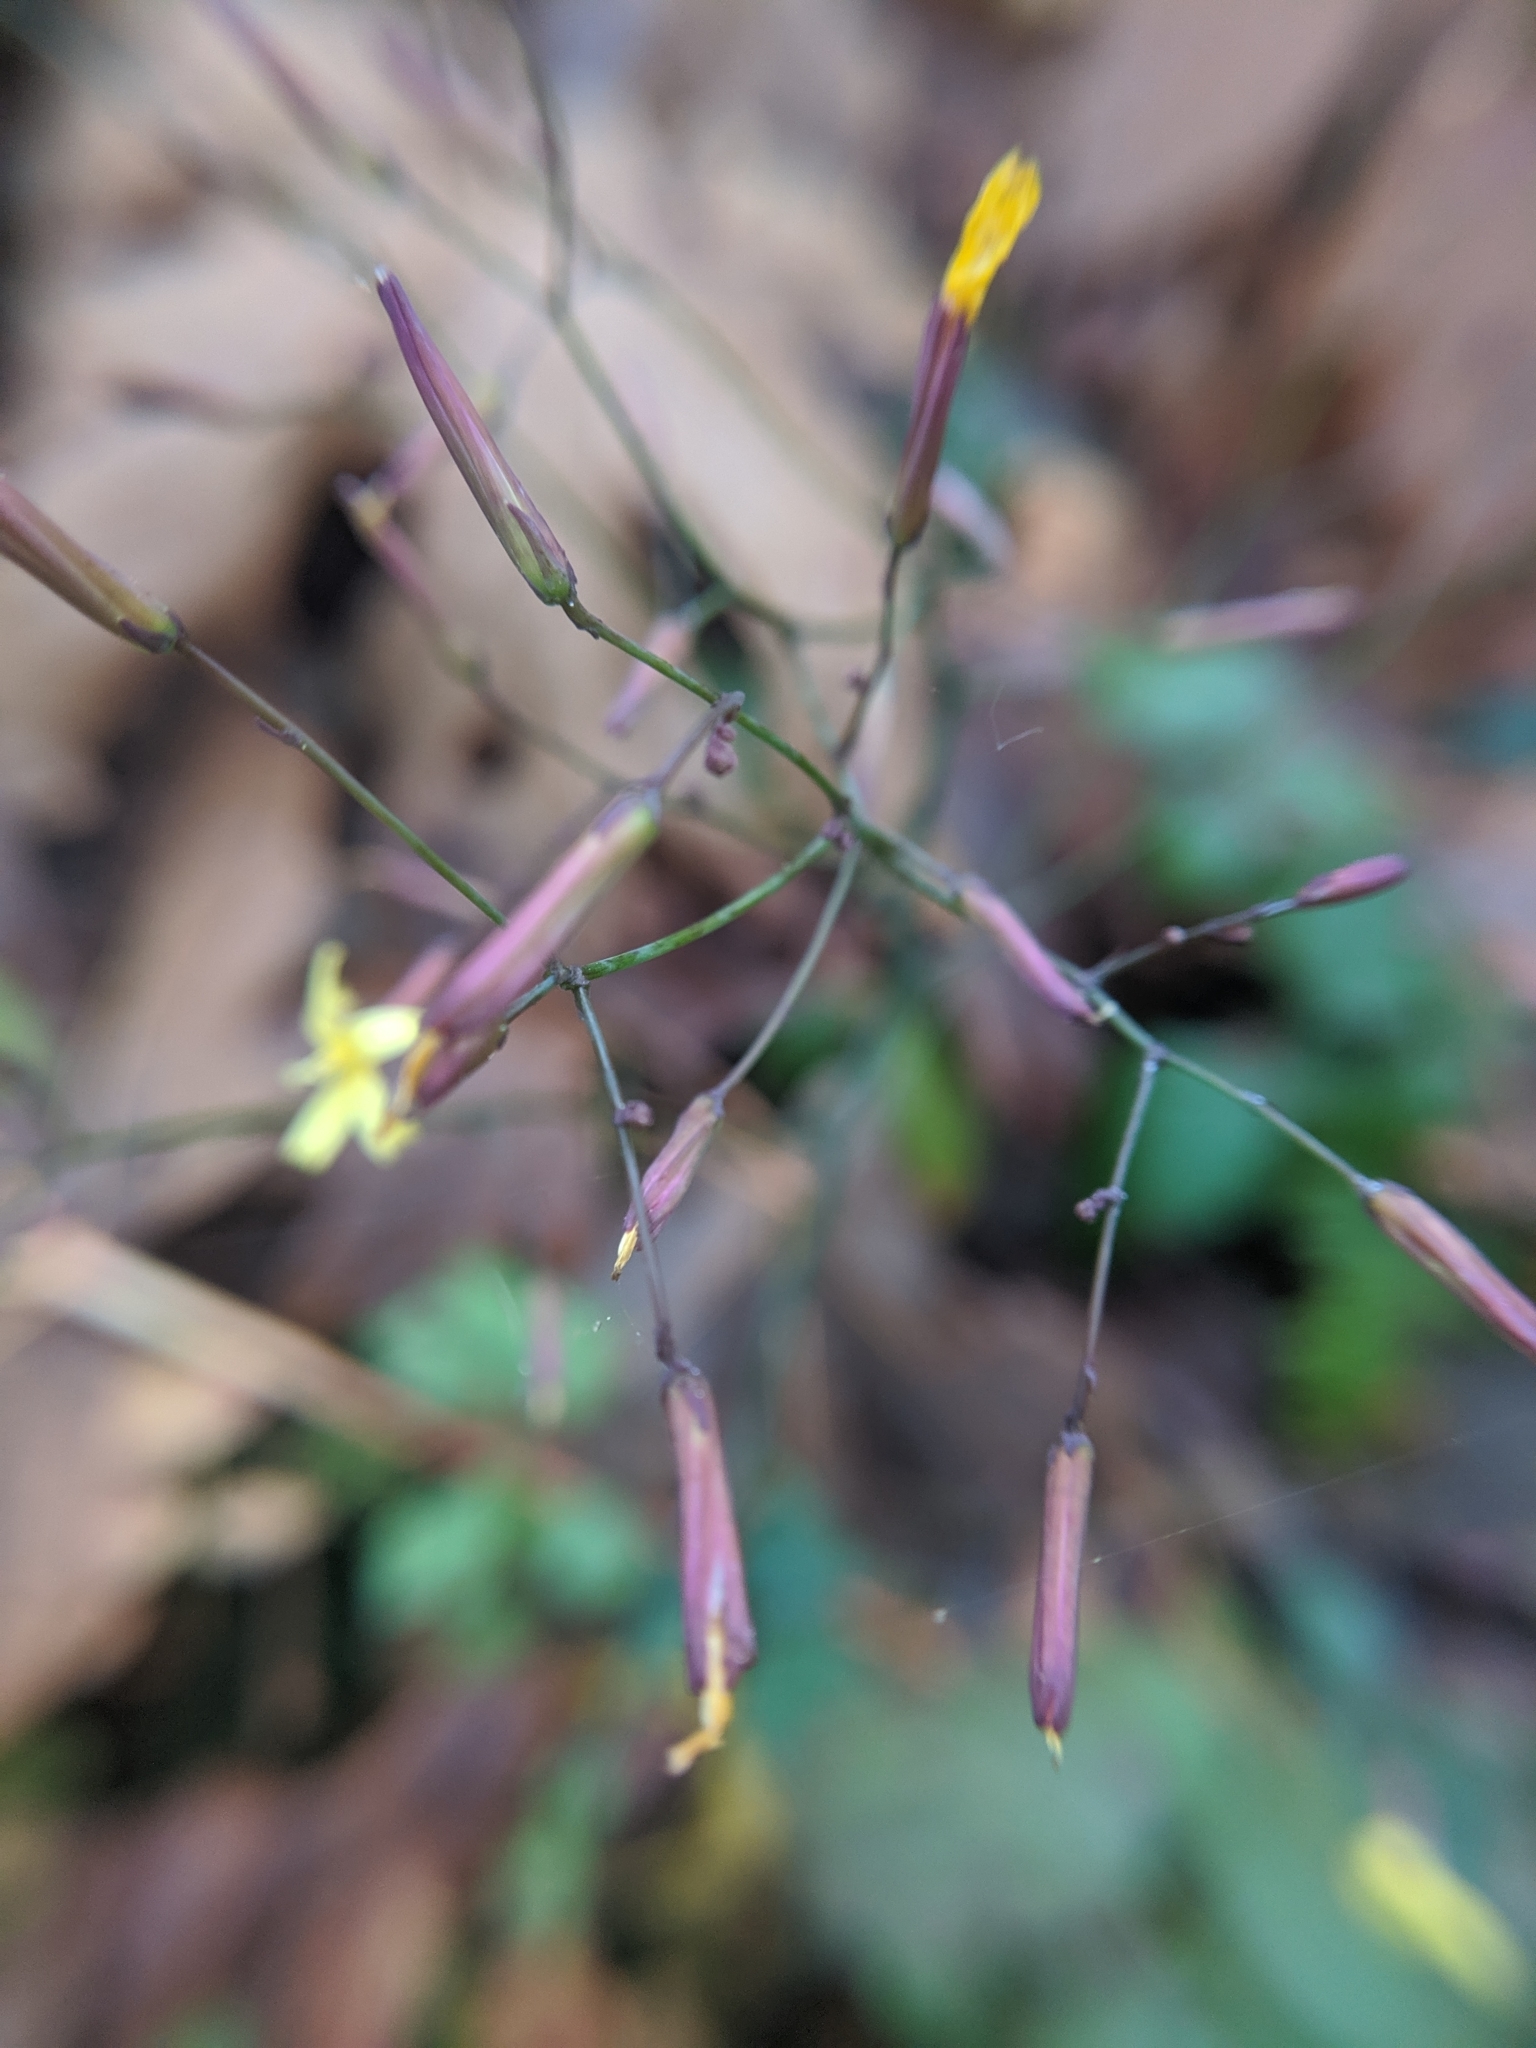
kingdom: Plantae
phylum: Tracheophyta
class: Magnoliopsida
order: Asterales
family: Asteraceae
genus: Mycelis
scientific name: Mycelis muralis
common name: Wall lettuce
